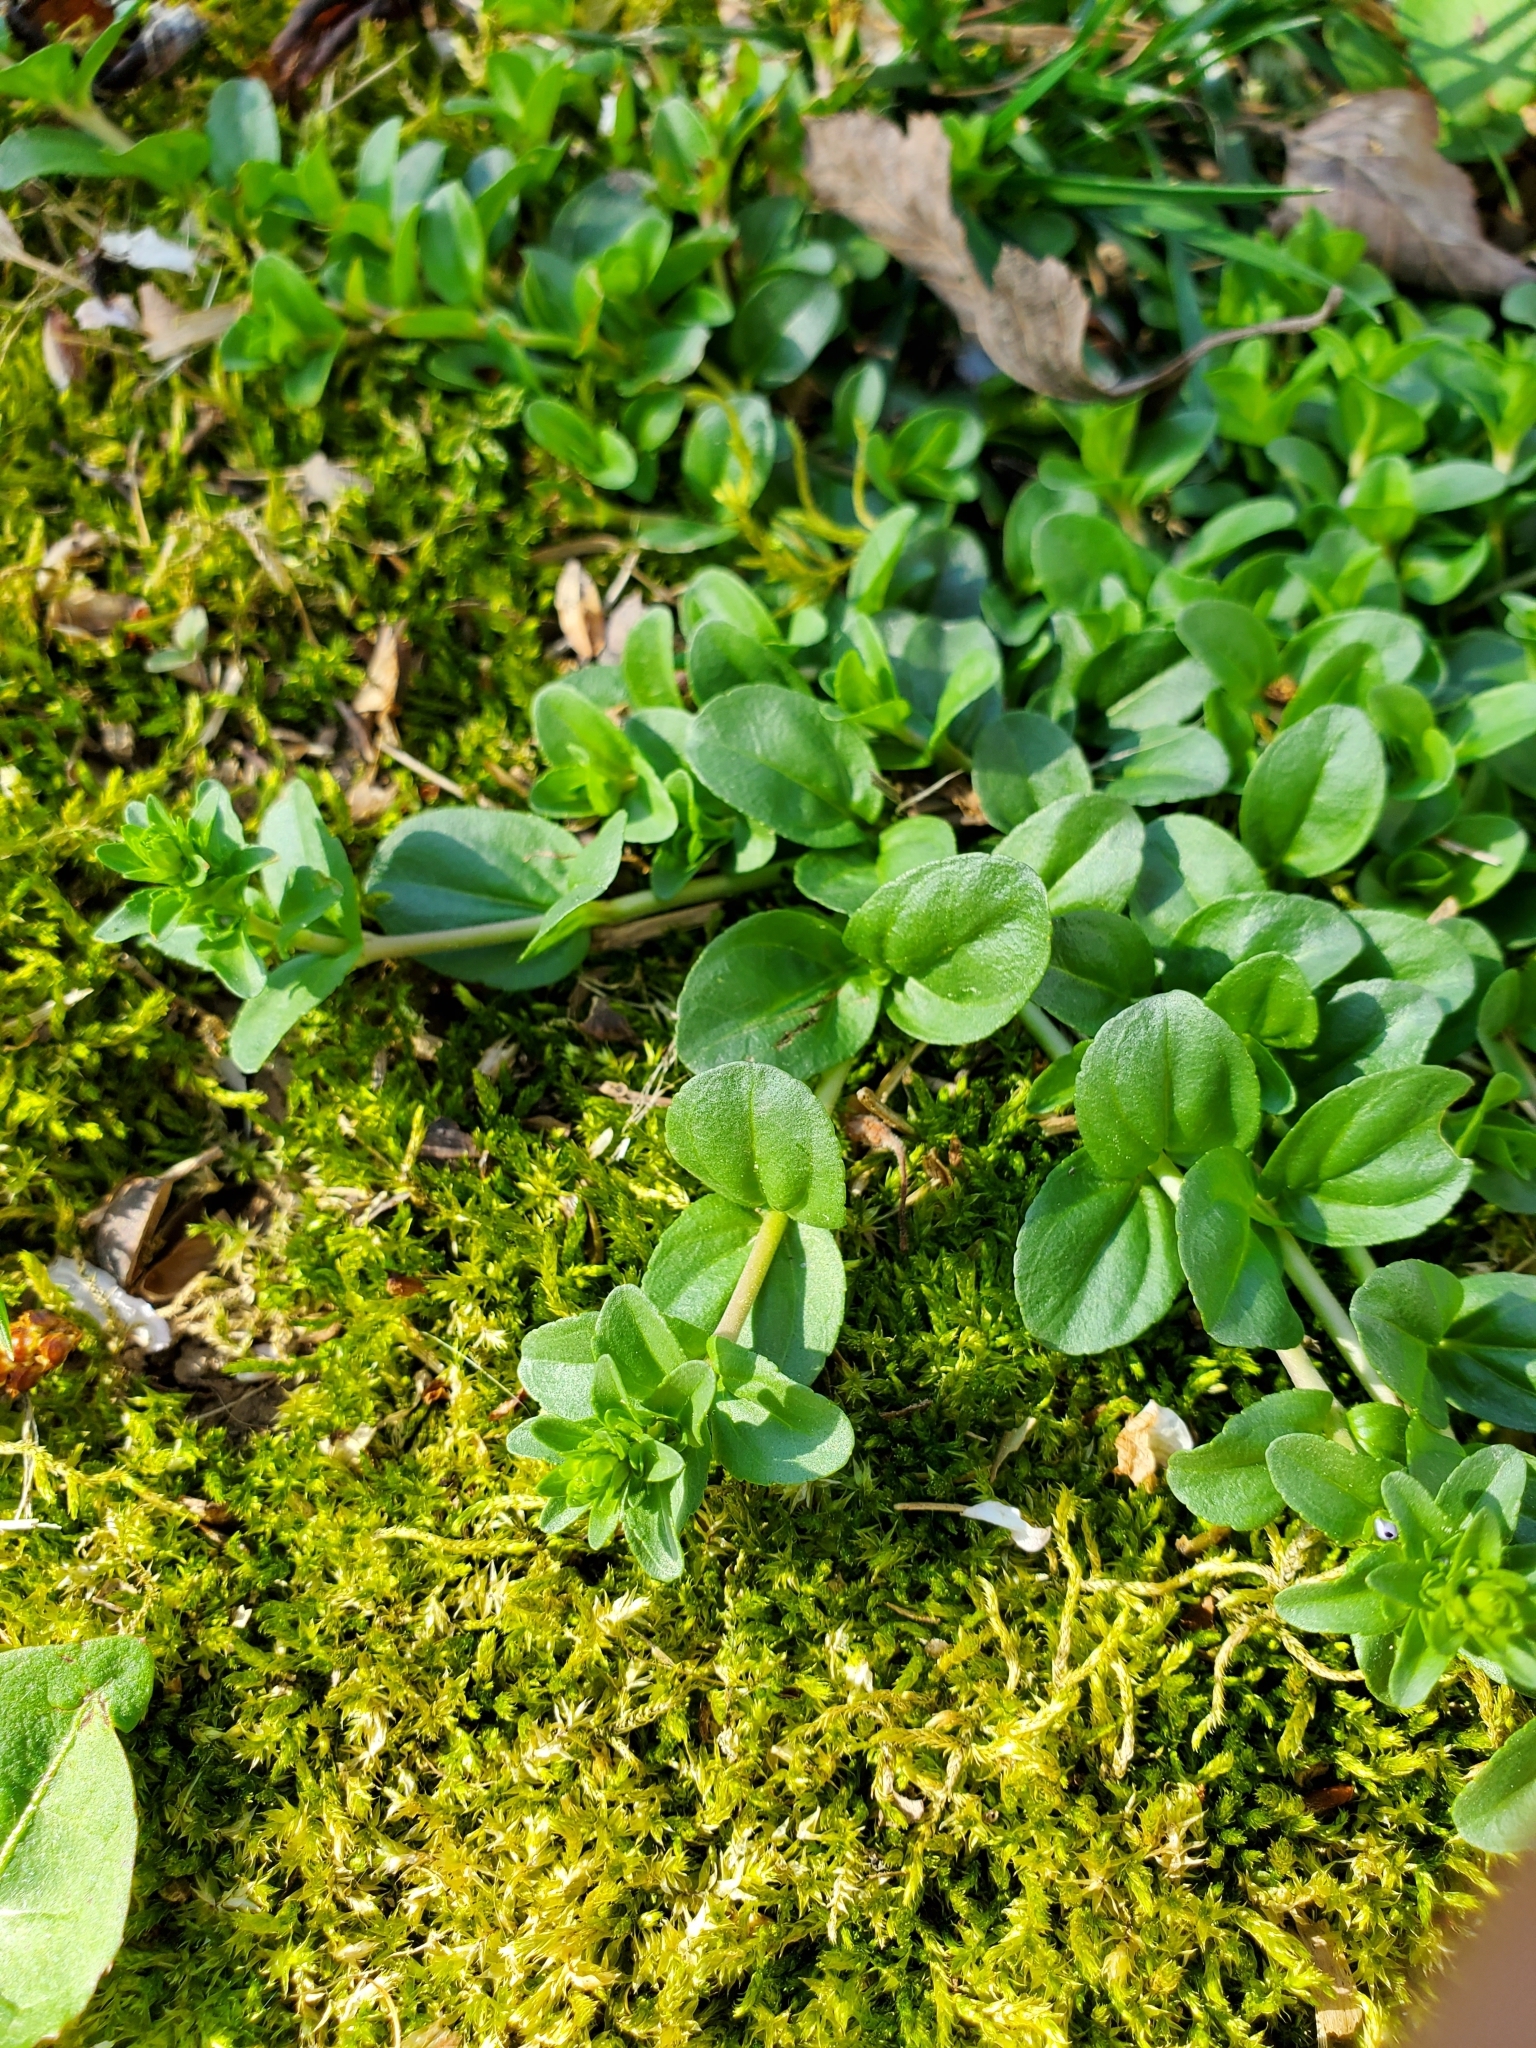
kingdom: Plantae
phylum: Tracheophyta
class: Magnoliopsida
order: Lamiales
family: Plantaginaceae
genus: Veronica
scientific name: Veronica serpyllifolia
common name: Thyme-leaved speedwell
